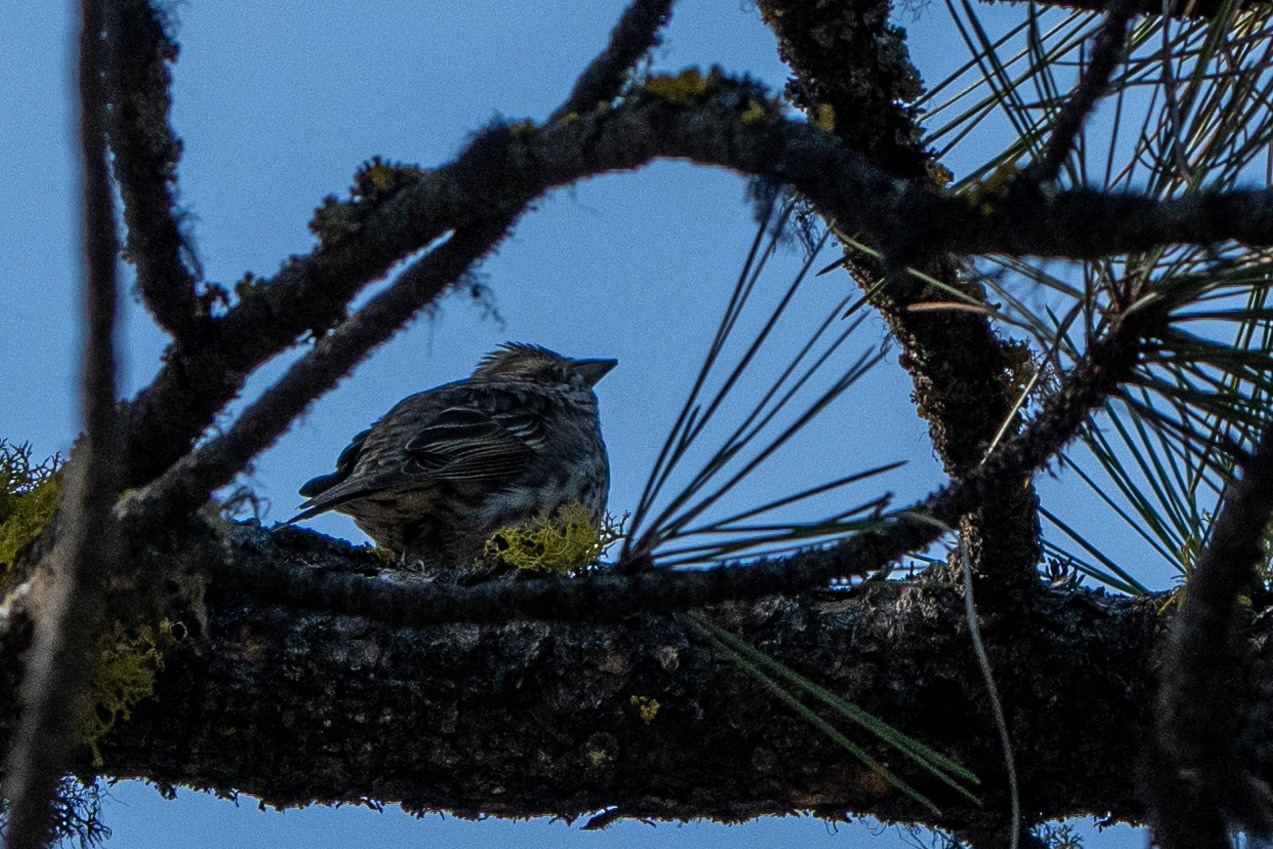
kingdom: Animalia
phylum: Chordata
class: Aves
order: Passeriformes
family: Fringillidae
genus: Haemorhous
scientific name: Haemorhous cassinii
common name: Cassin's finch
